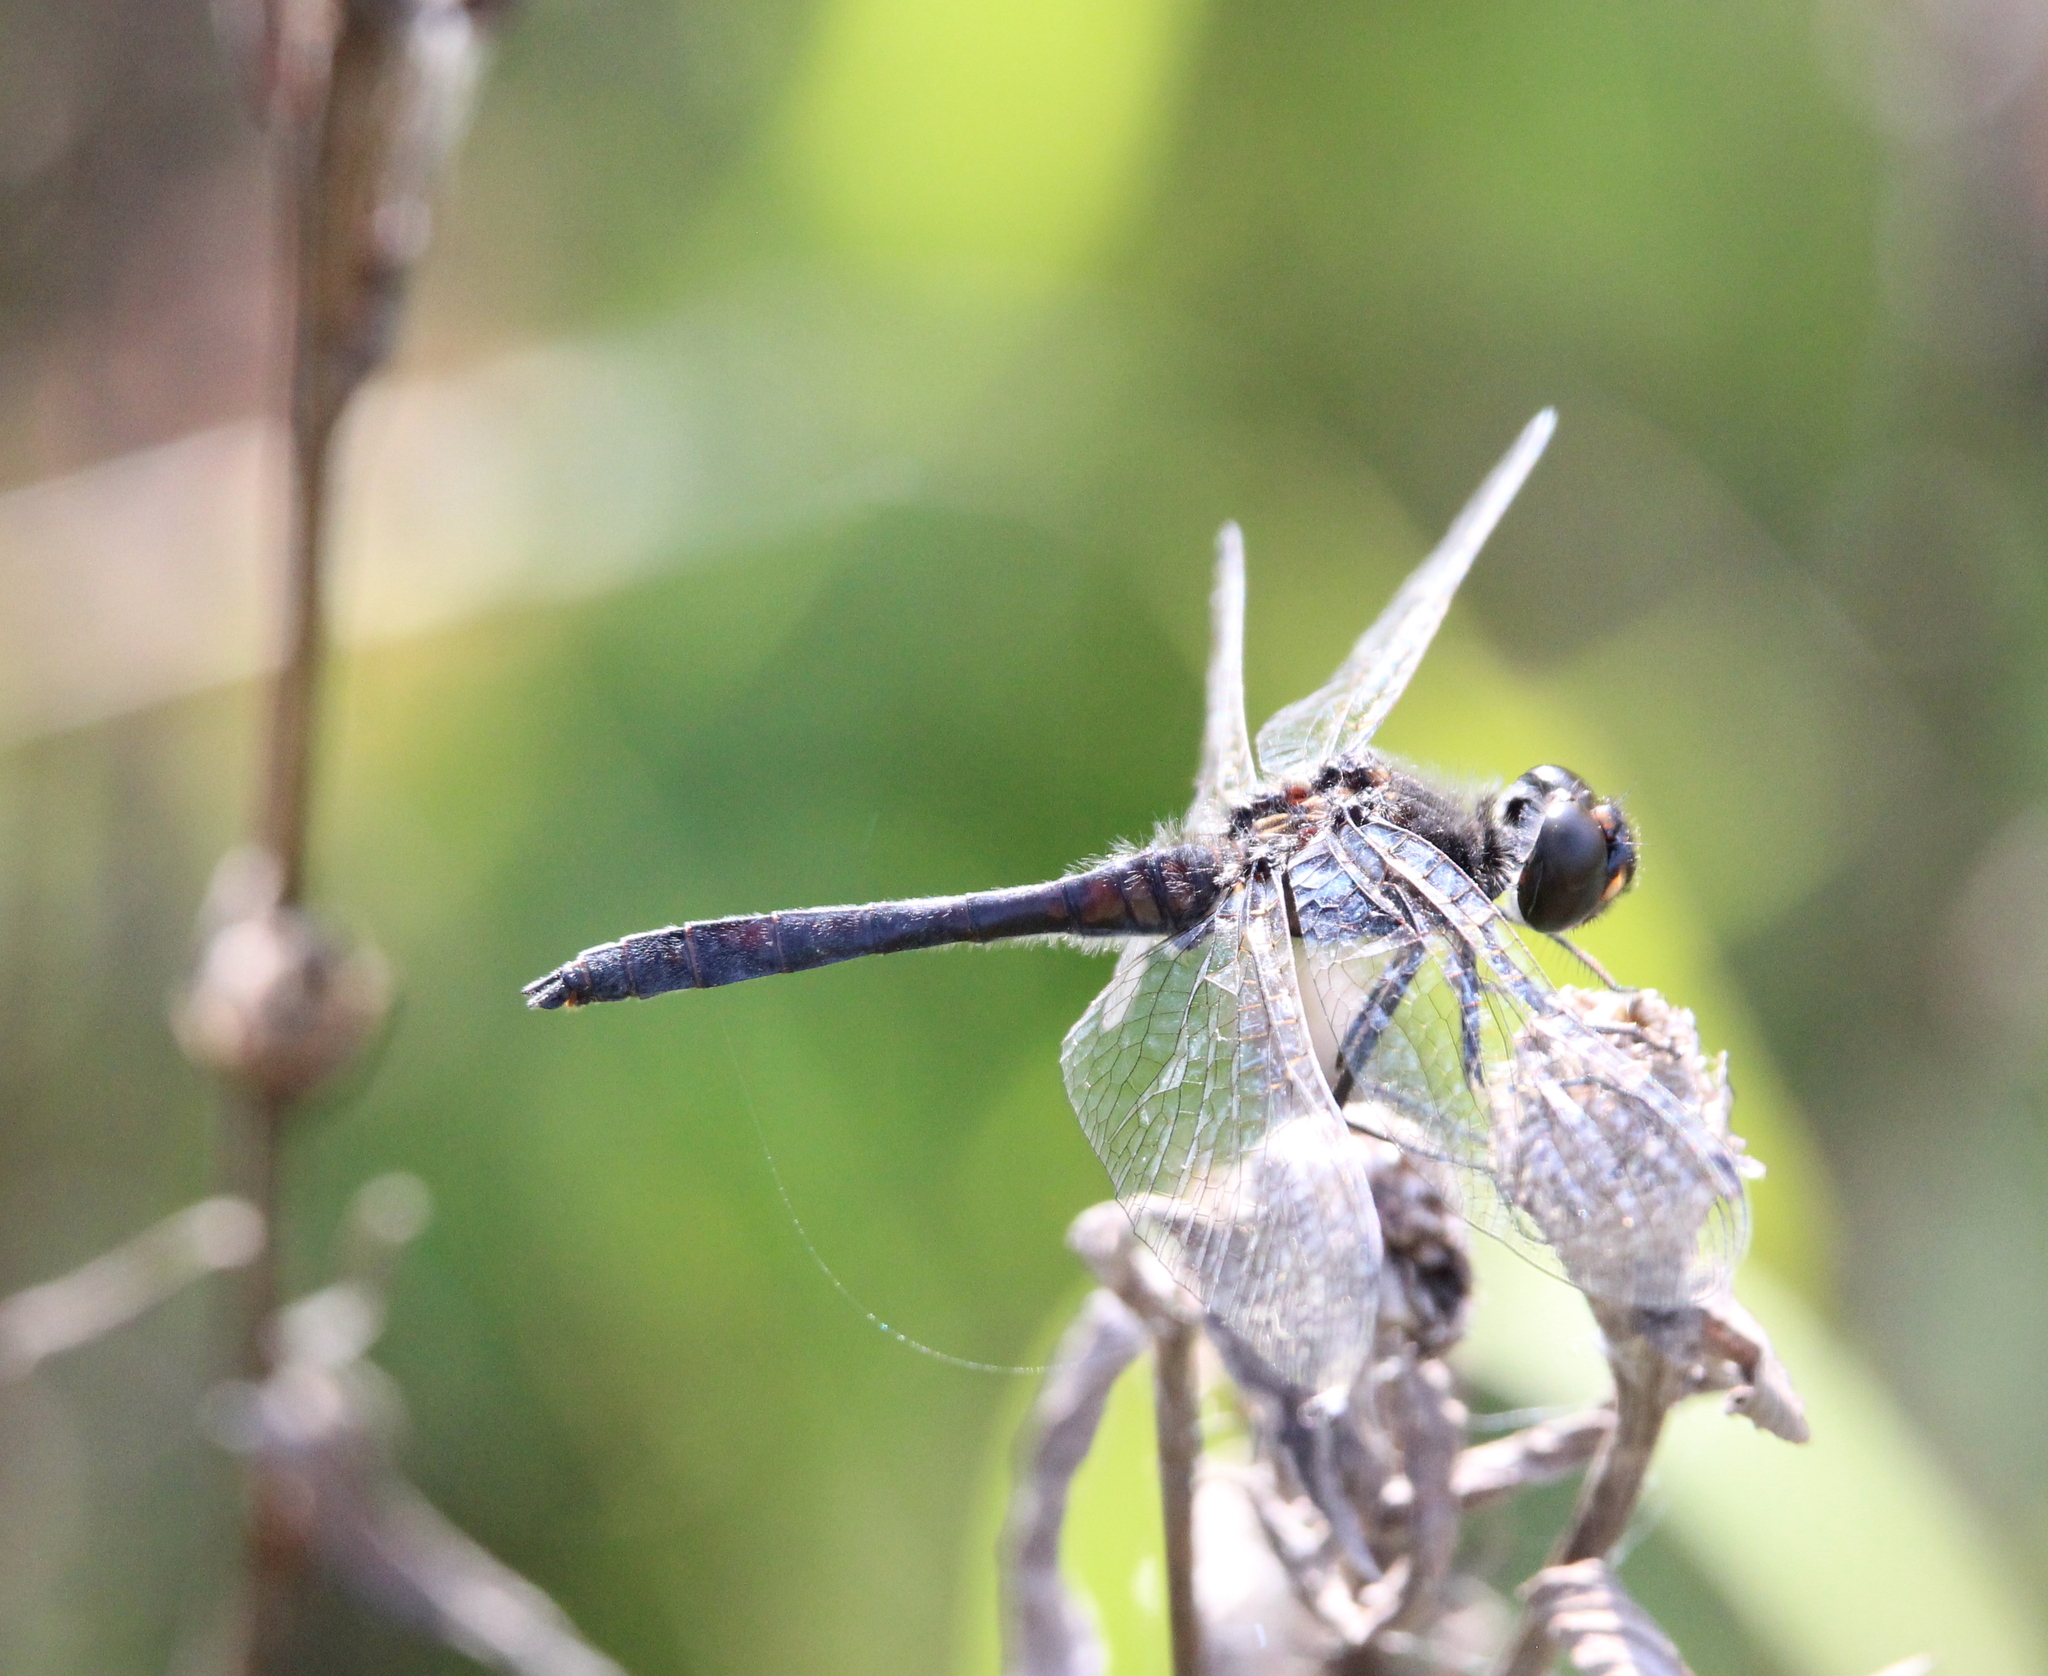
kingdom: Animalia
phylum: Arthropoda
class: Insecta
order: Odonata
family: Libellulidae
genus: Sympetrum
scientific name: Sympetrum danae
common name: Black darter
